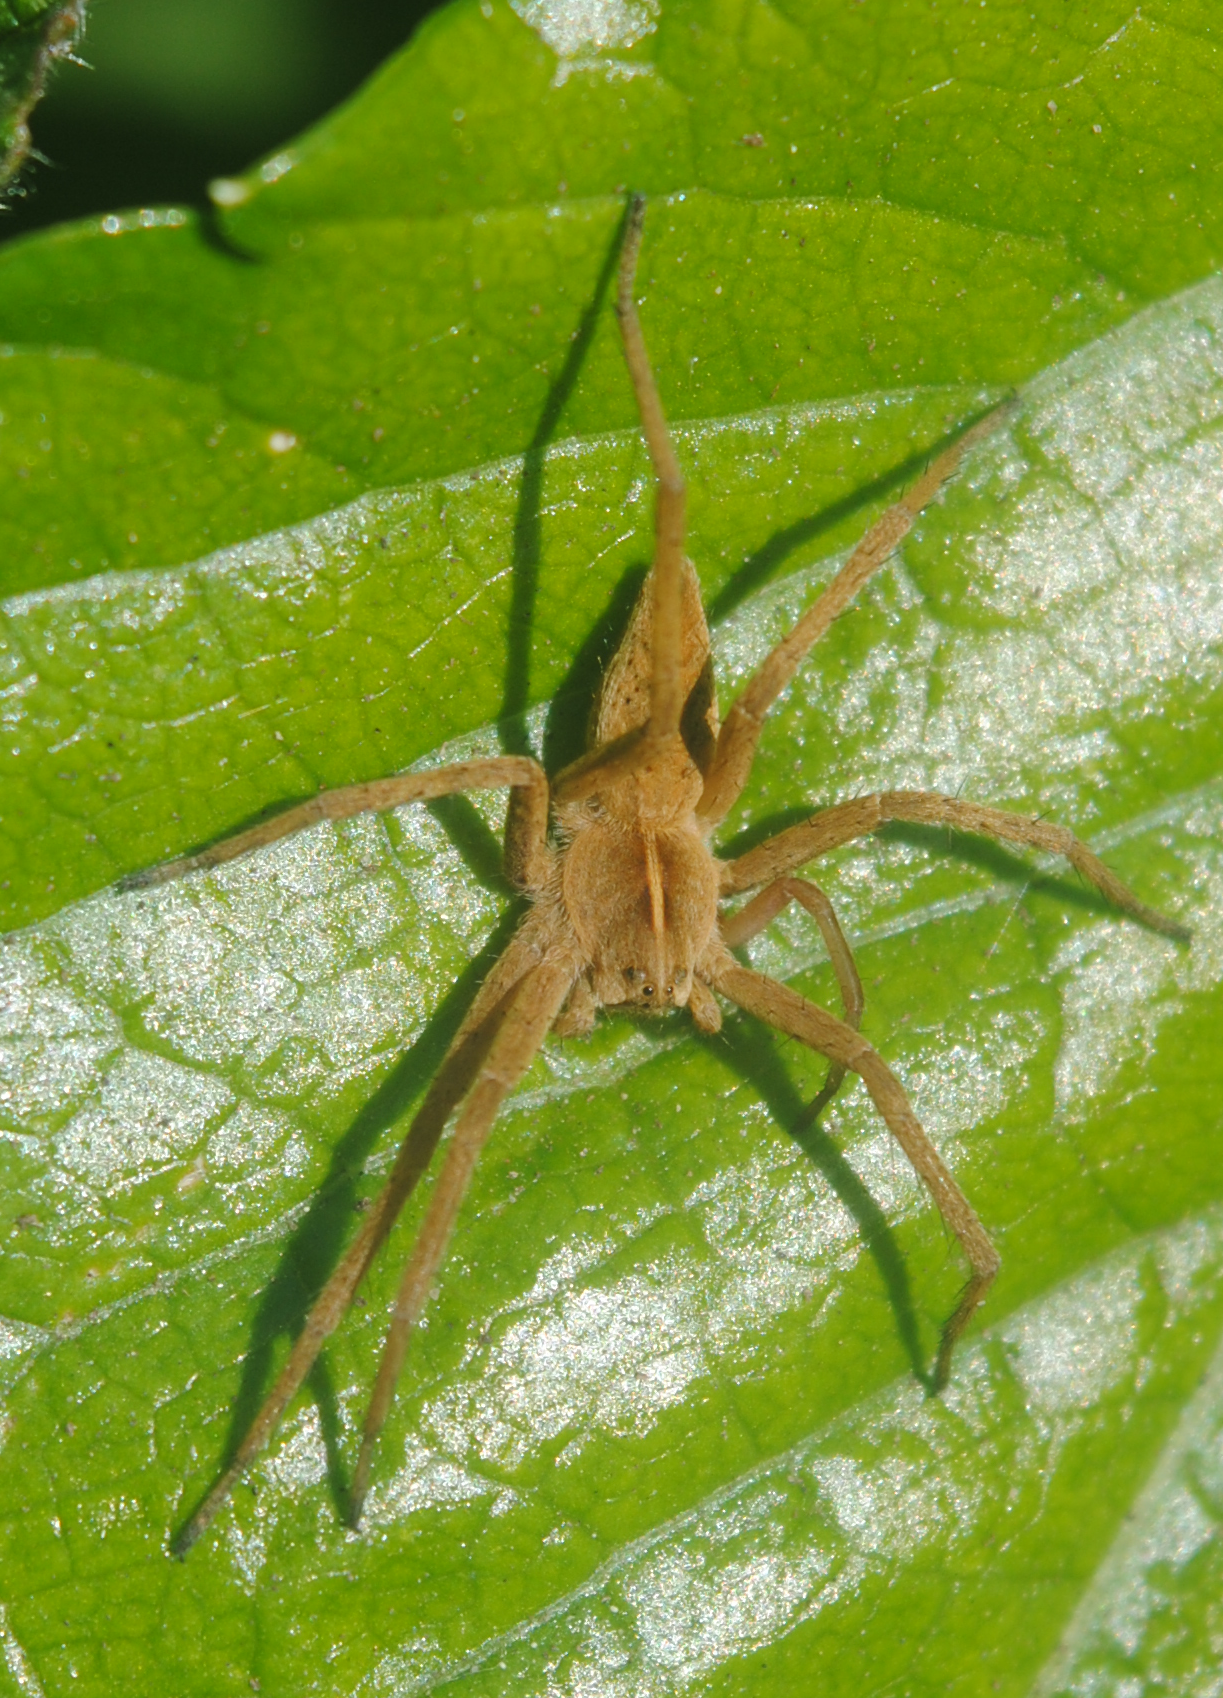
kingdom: Animalia
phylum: Arthropoda
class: Arachnida
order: Araneae
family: Pisauridae
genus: Pisaura
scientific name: Pisaura mirabilis
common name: Tent spider
